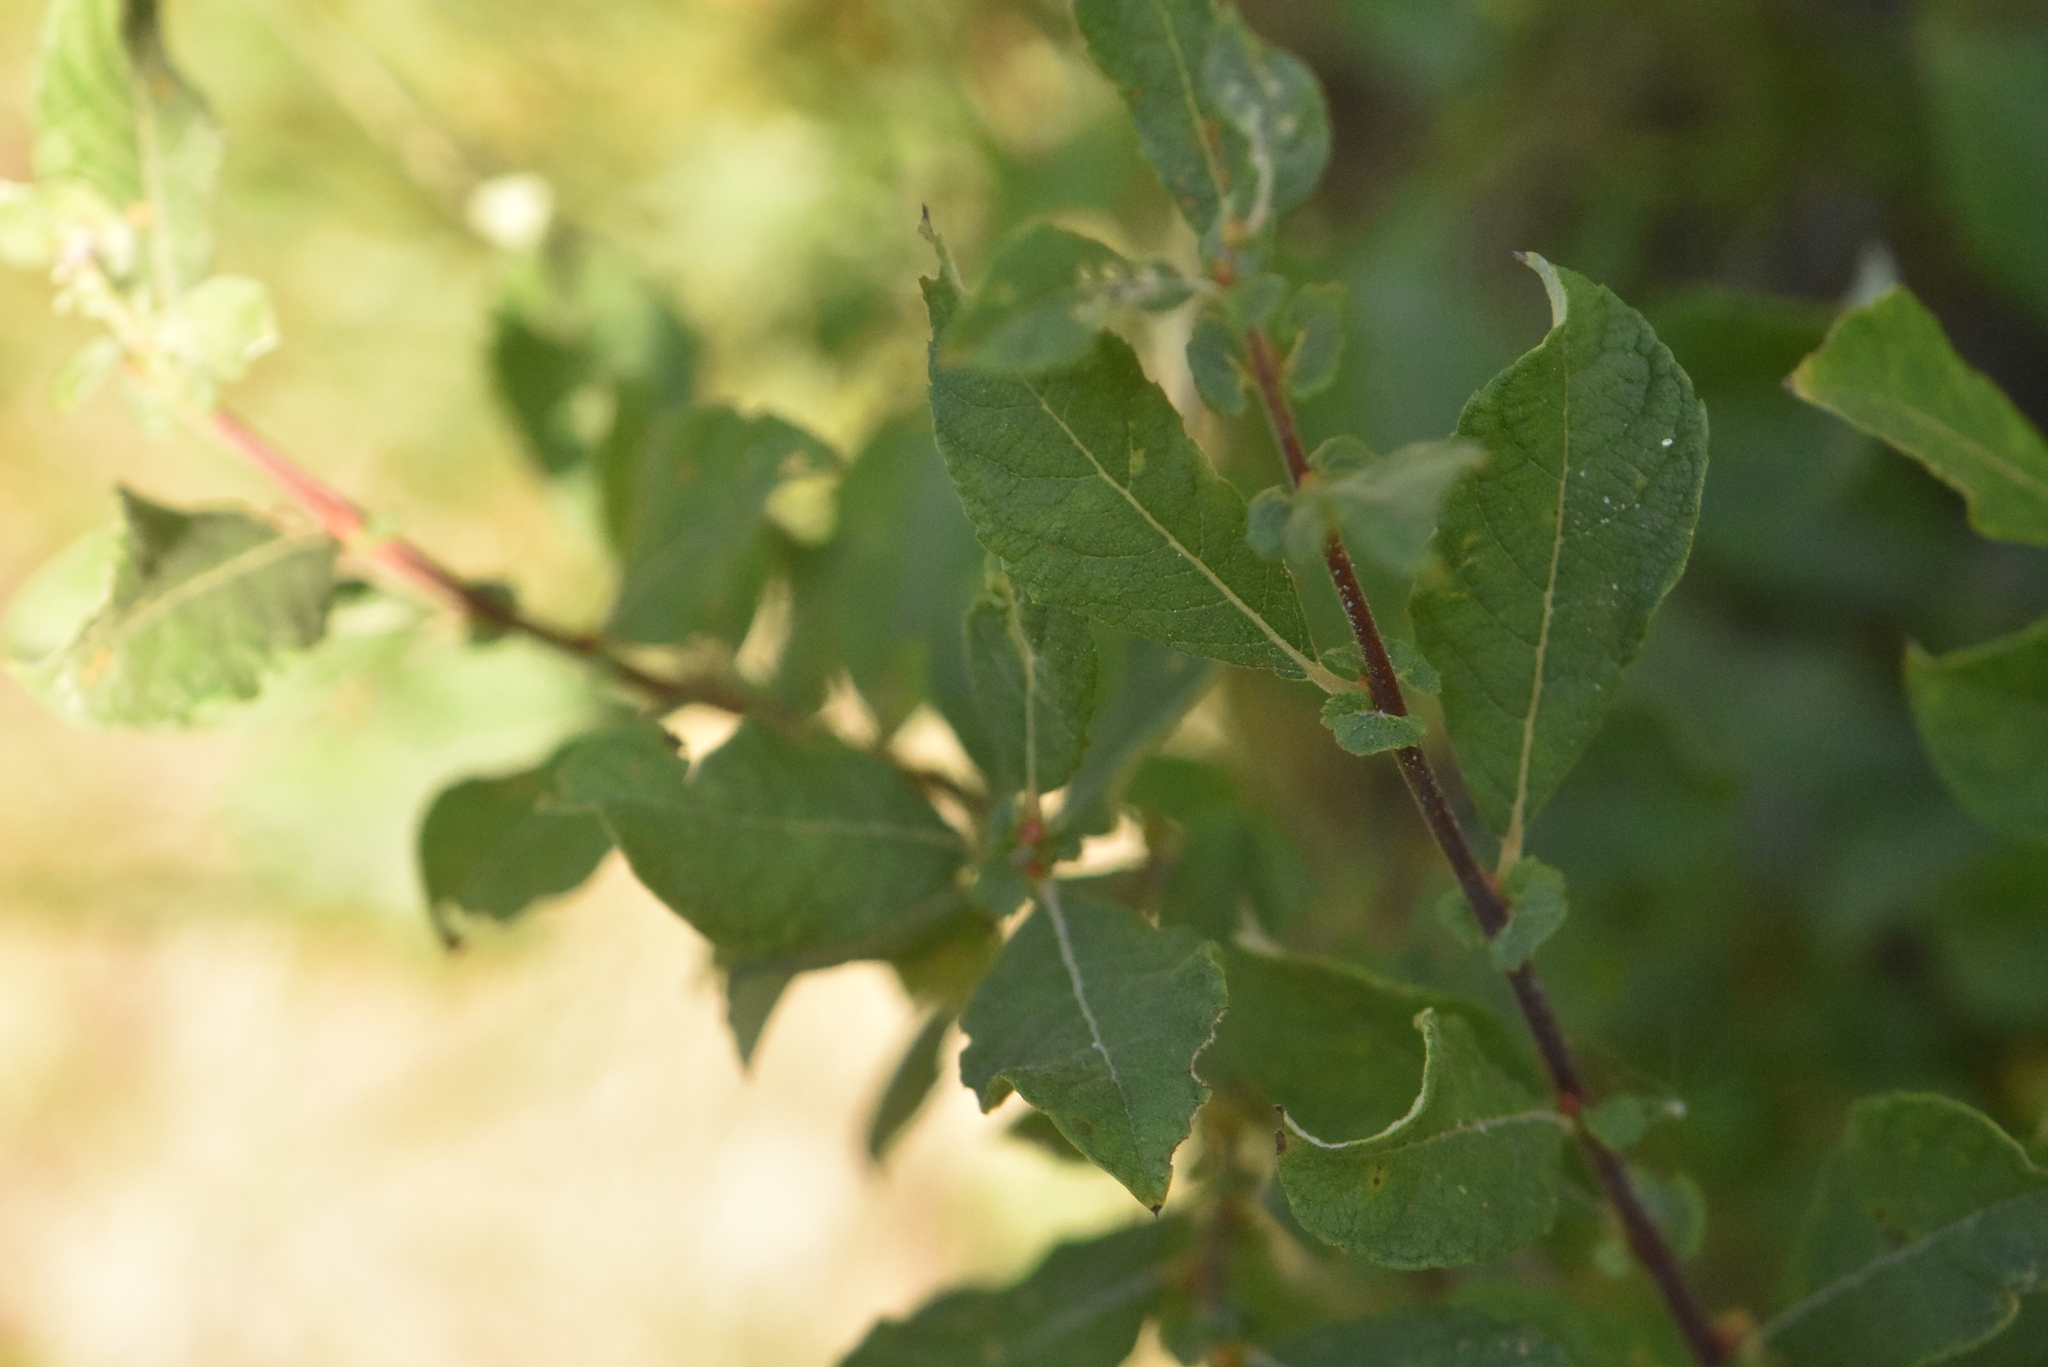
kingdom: Plantae
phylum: Tracheophyta
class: Magnoliopsida
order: Malpighiales
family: Salicaceae
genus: Salix
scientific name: Salix aurita
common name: Eared willow
